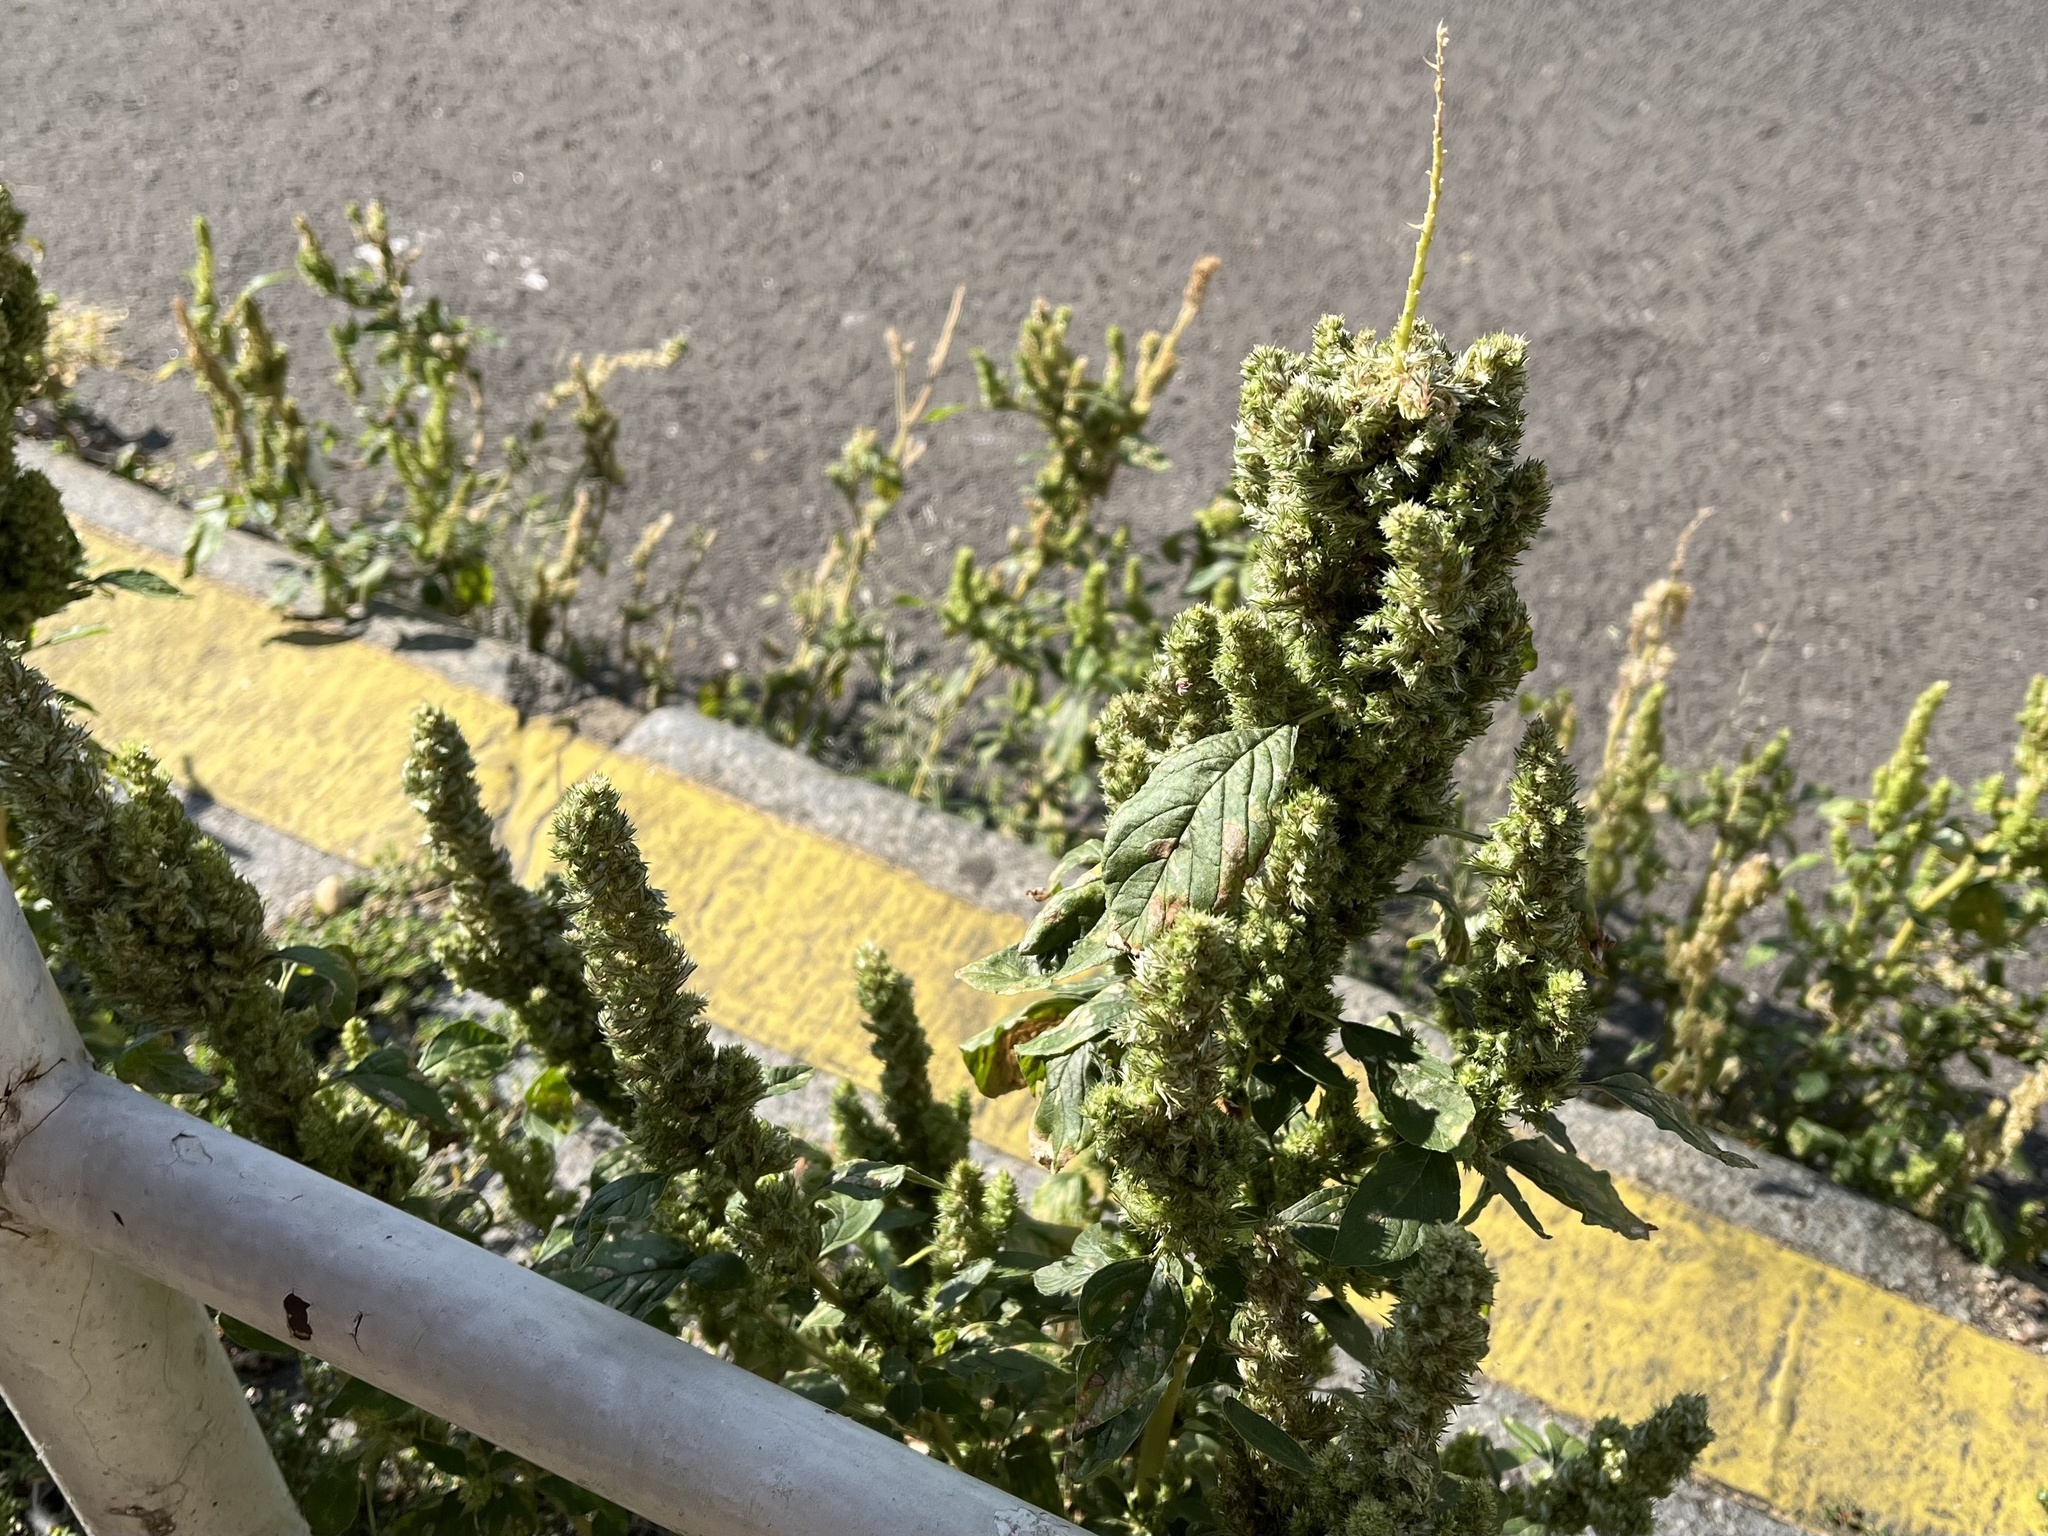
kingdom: Plantae
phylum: Tracheophyta
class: Magnoliopsida
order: Caryophyllales
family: Amaranthaceae
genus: Amaranthus
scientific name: Amaranthus retroflexus
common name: Redroot amaranth
